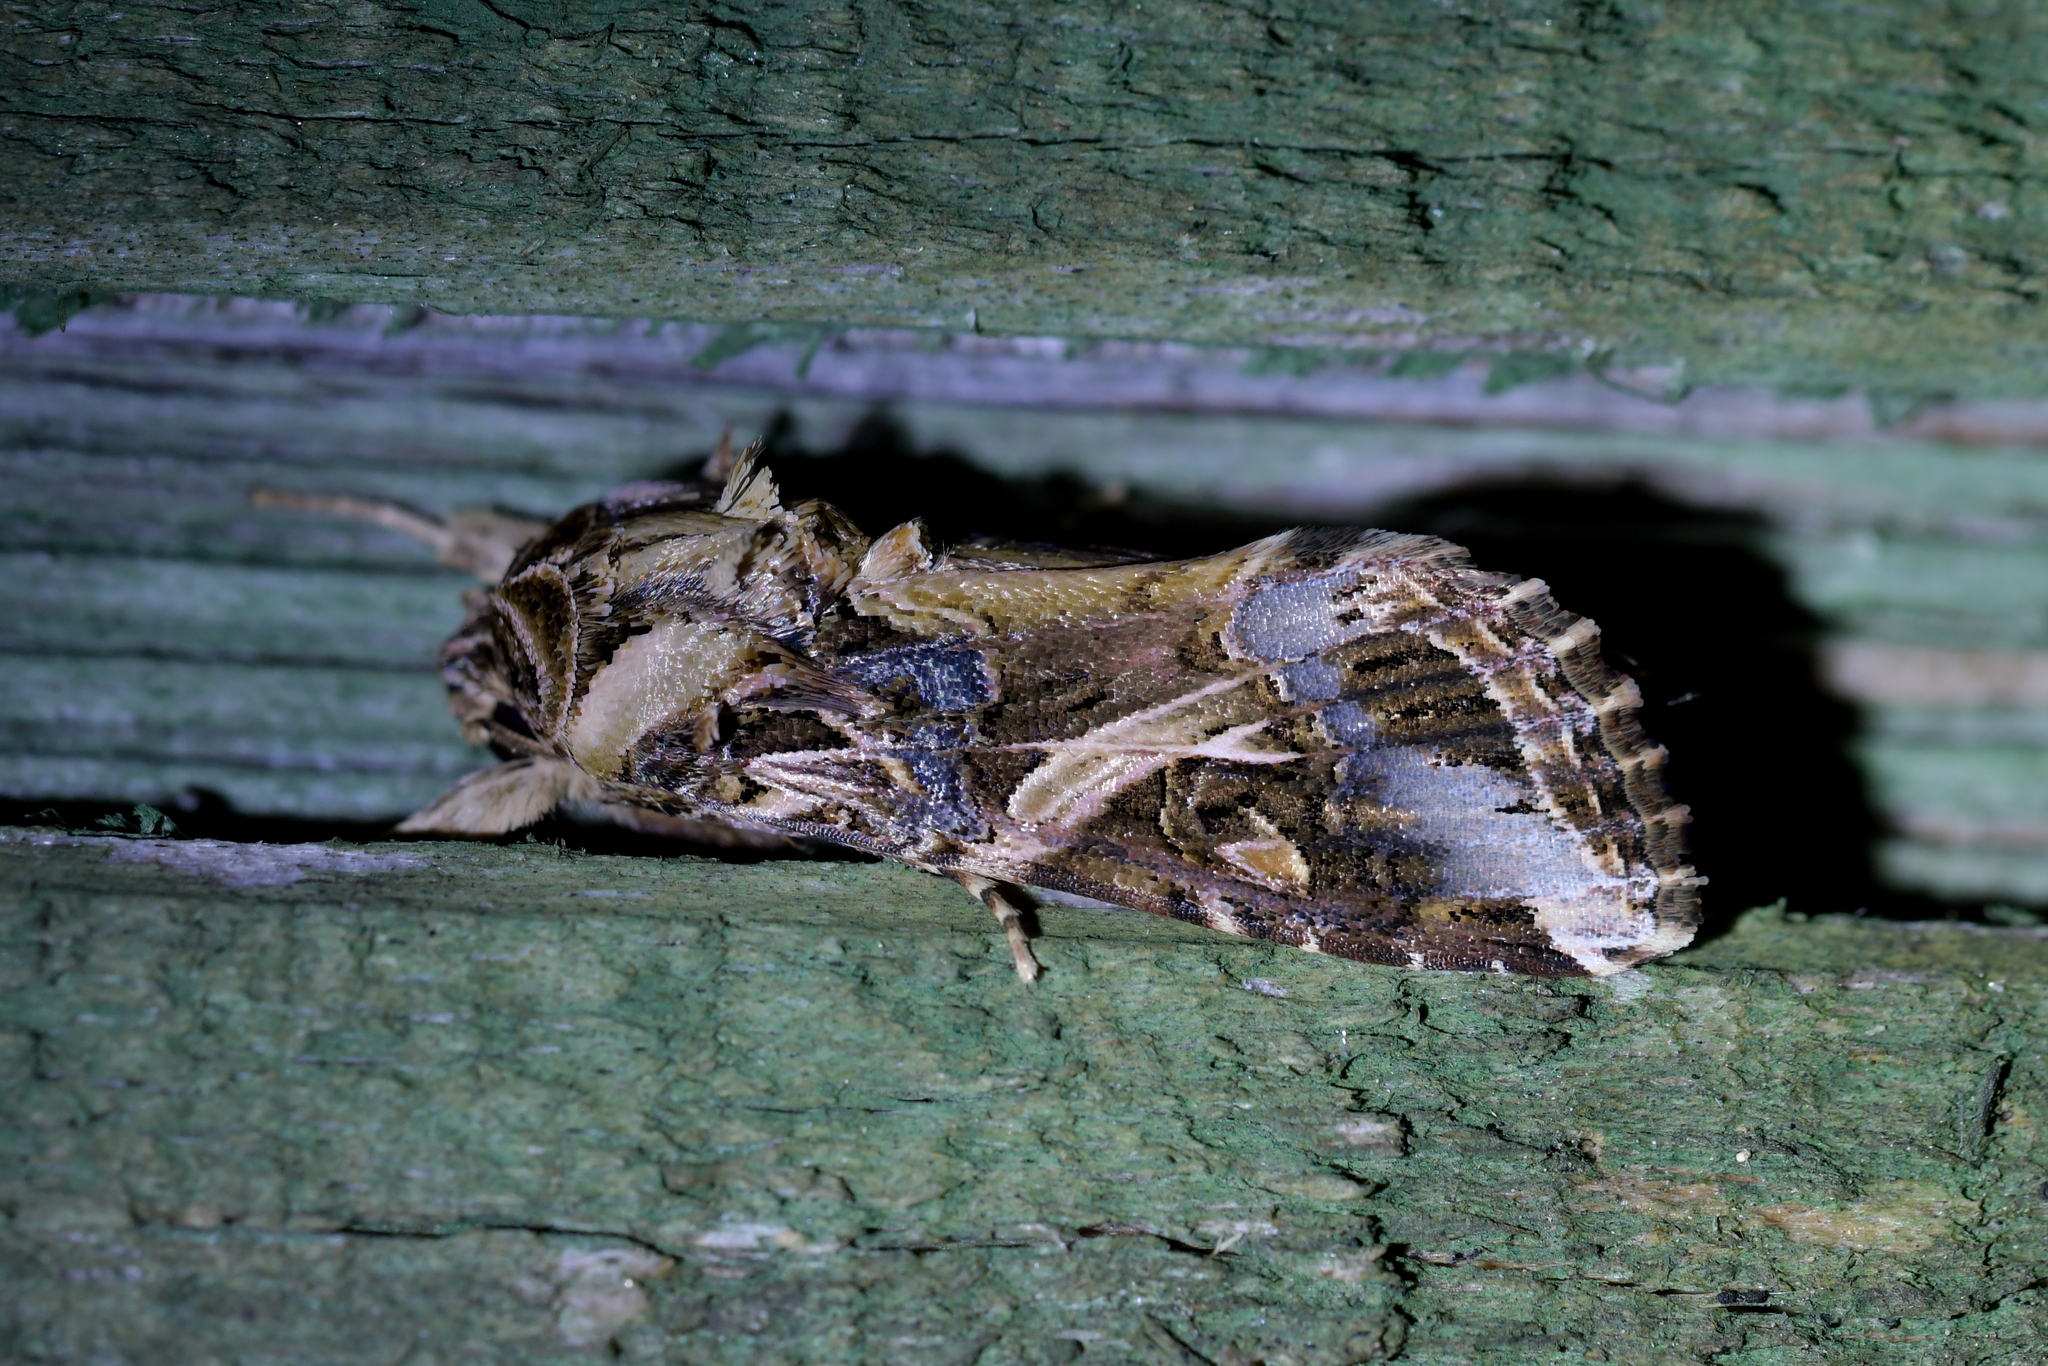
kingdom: Animalia
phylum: Arthropoda
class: Insecta
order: Lepidoptera
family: Noctuidae
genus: Spodoptera
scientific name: Spodoptera litura
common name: Asian cotton leafworm
